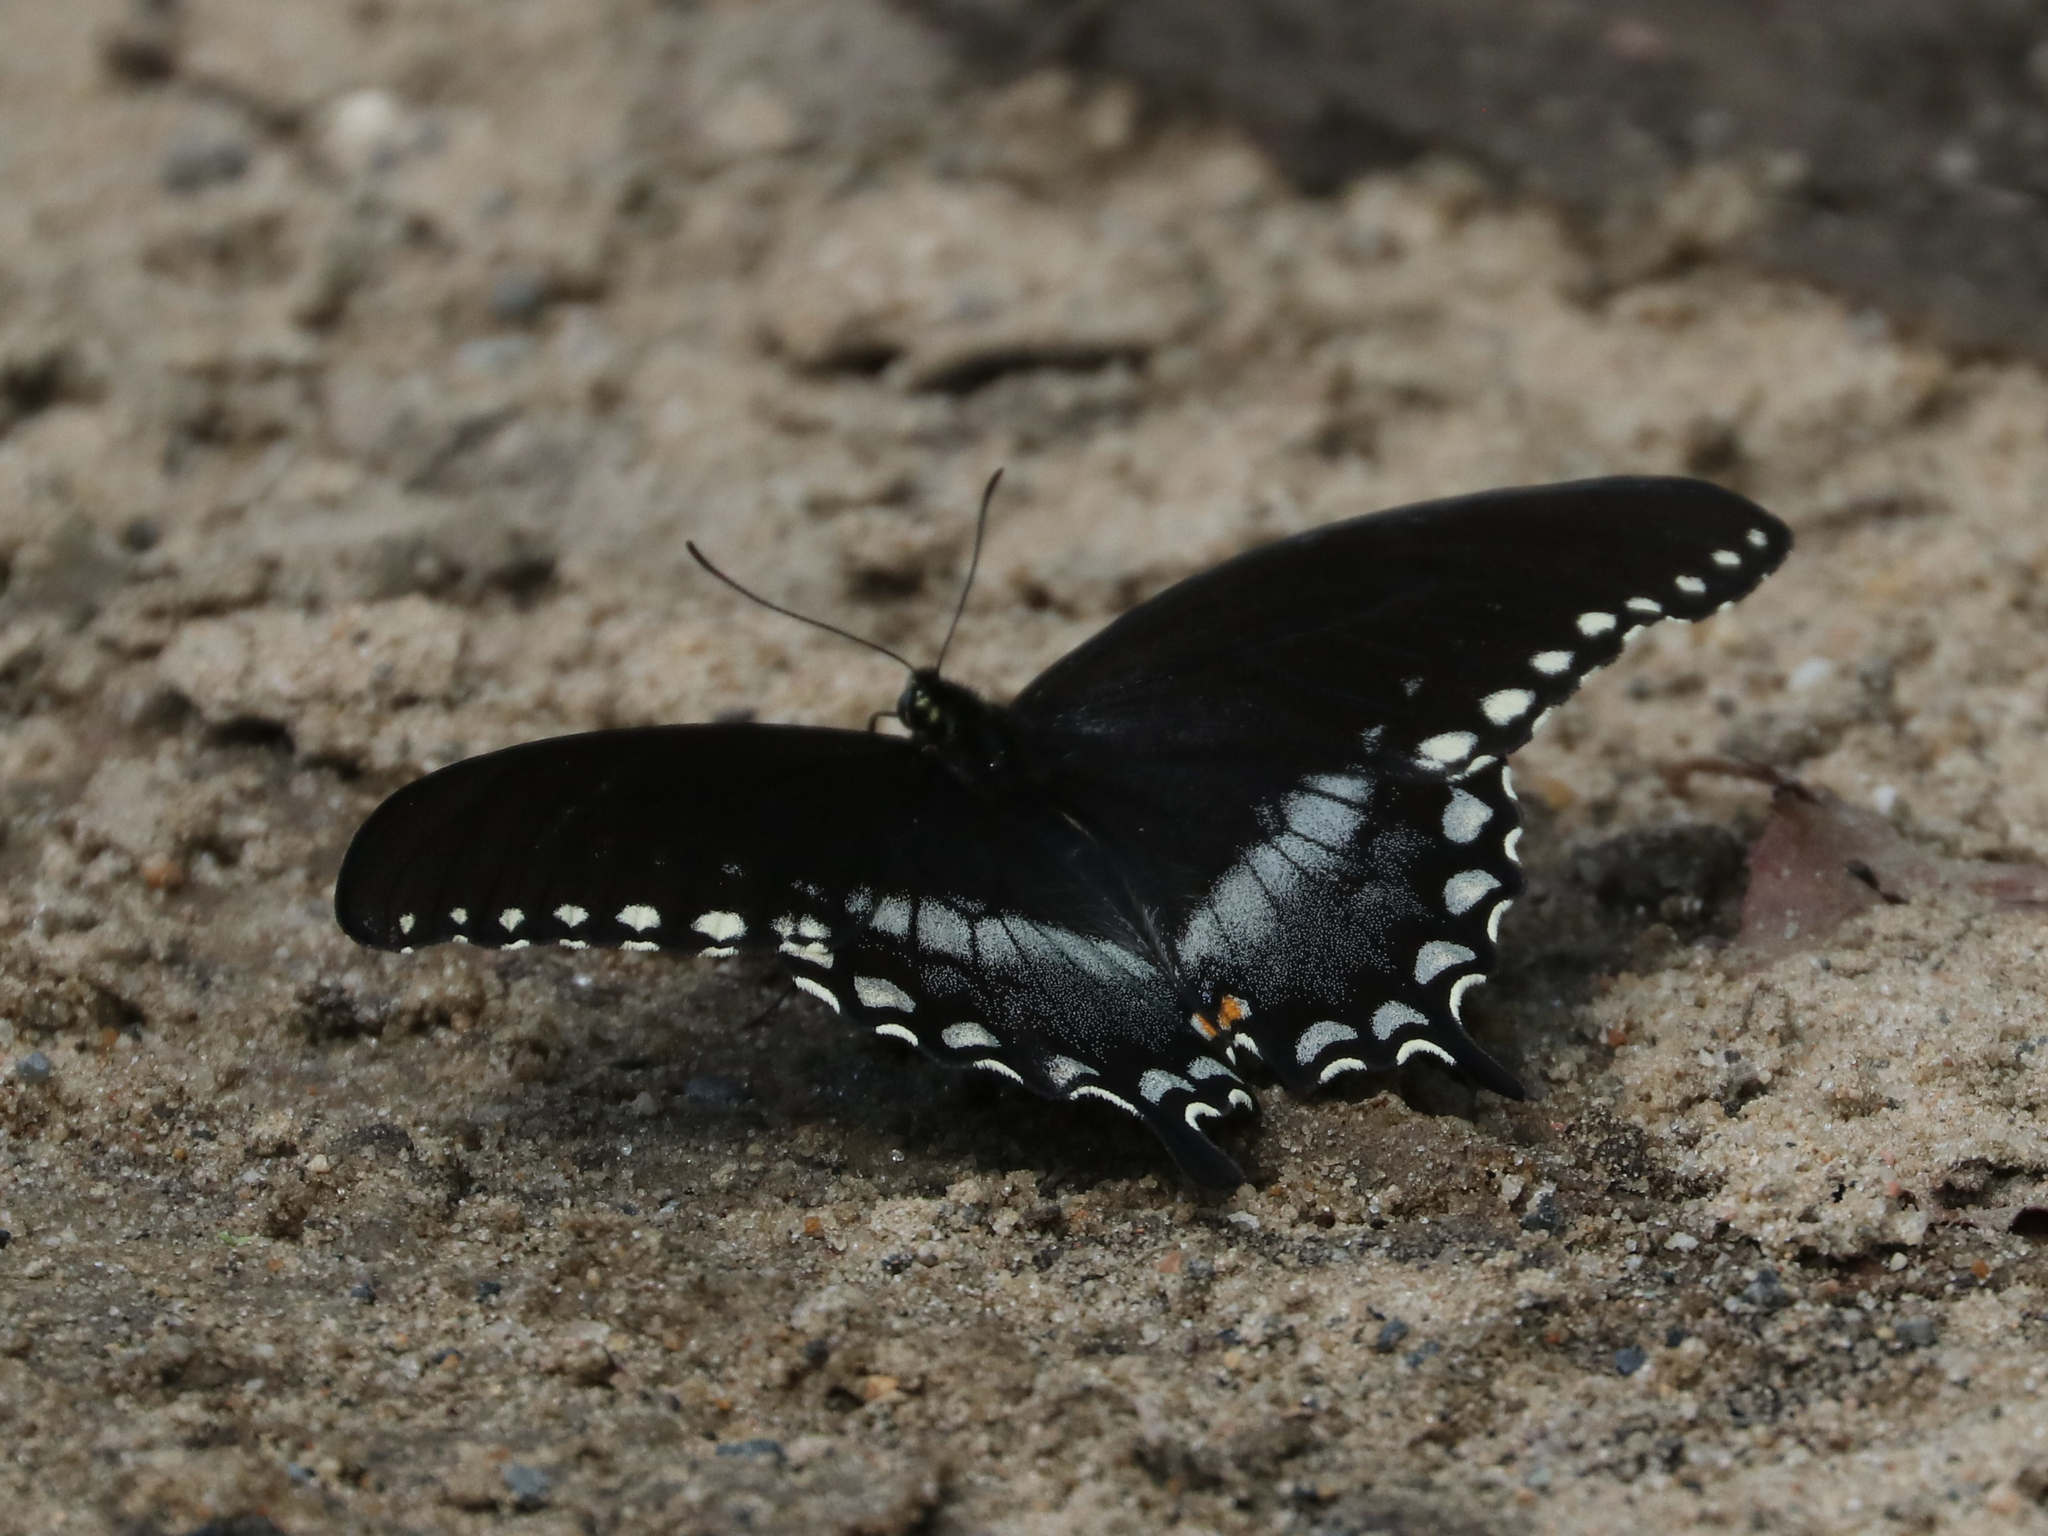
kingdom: Animalia
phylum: Arthropoda
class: Insecta
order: Lepidoptera
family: Papilionidae
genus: Papilio
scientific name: Papilio troilus
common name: Spicebush swallowtail
